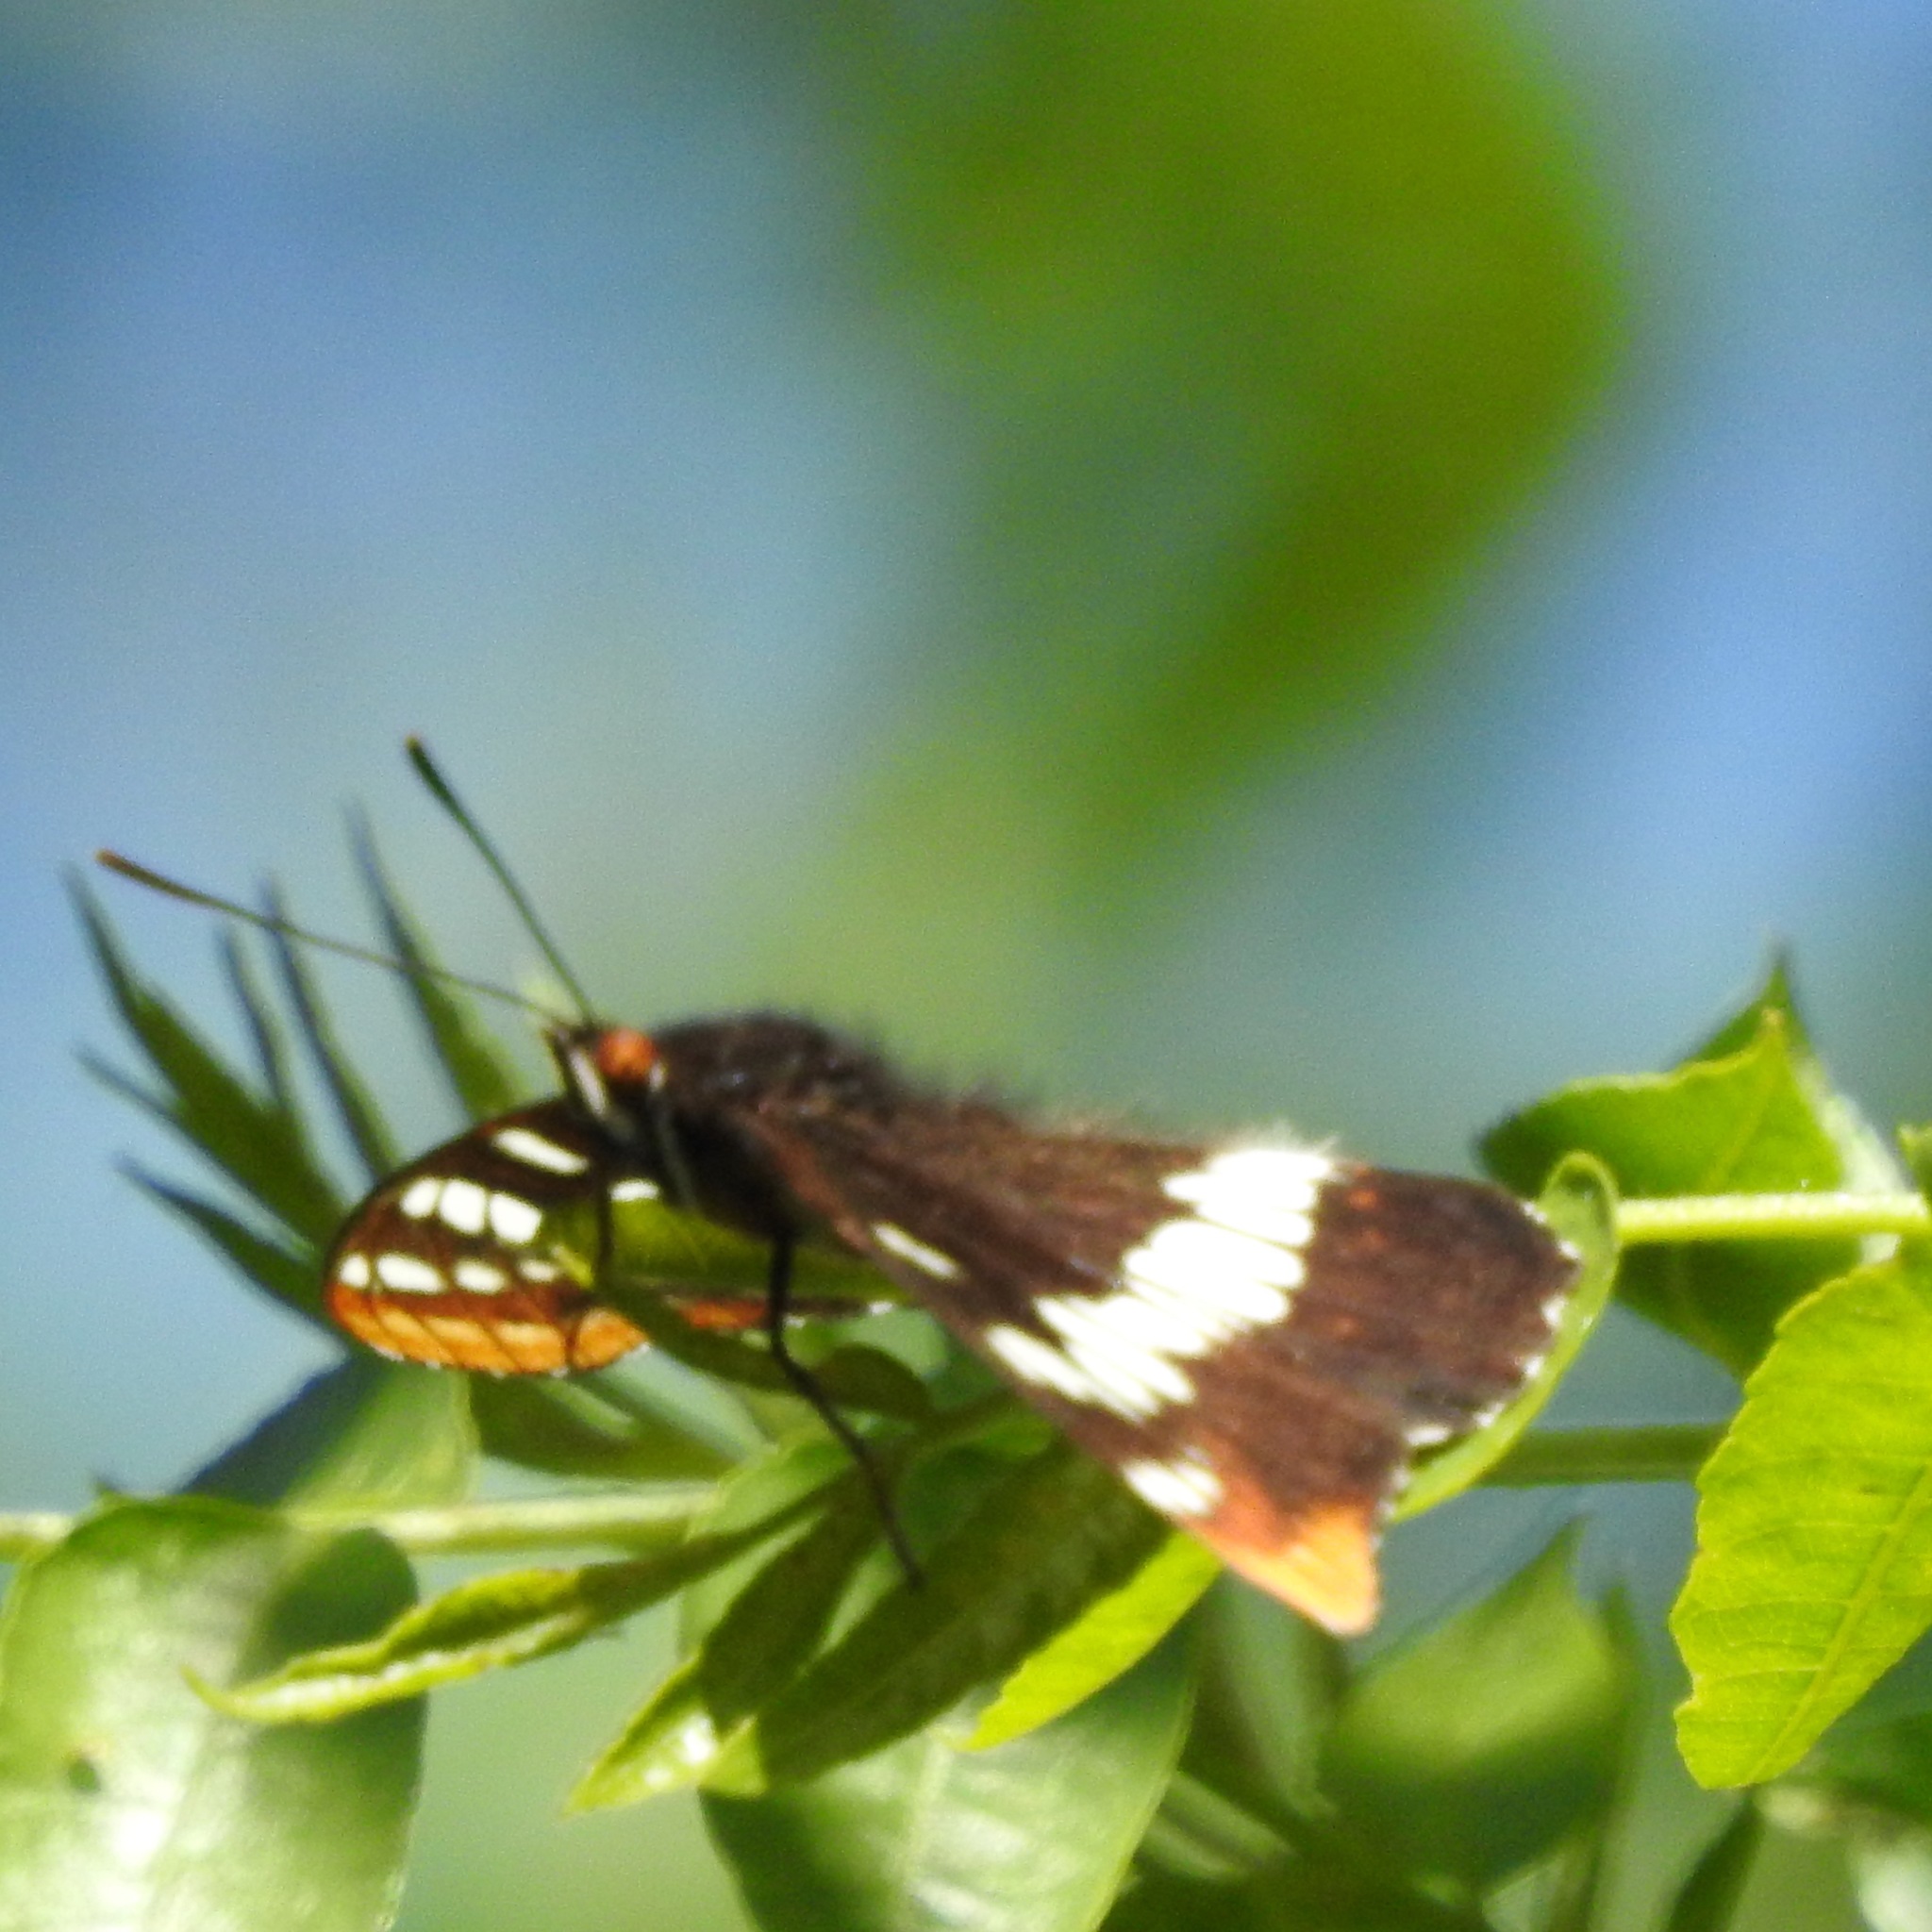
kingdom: Animalia
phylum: Arthropoda
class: Insecta
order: Lepidoptera
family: Nymphalidae
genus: Limenitis
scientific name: Limenitis lorquini
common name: Lorquin's admiral
